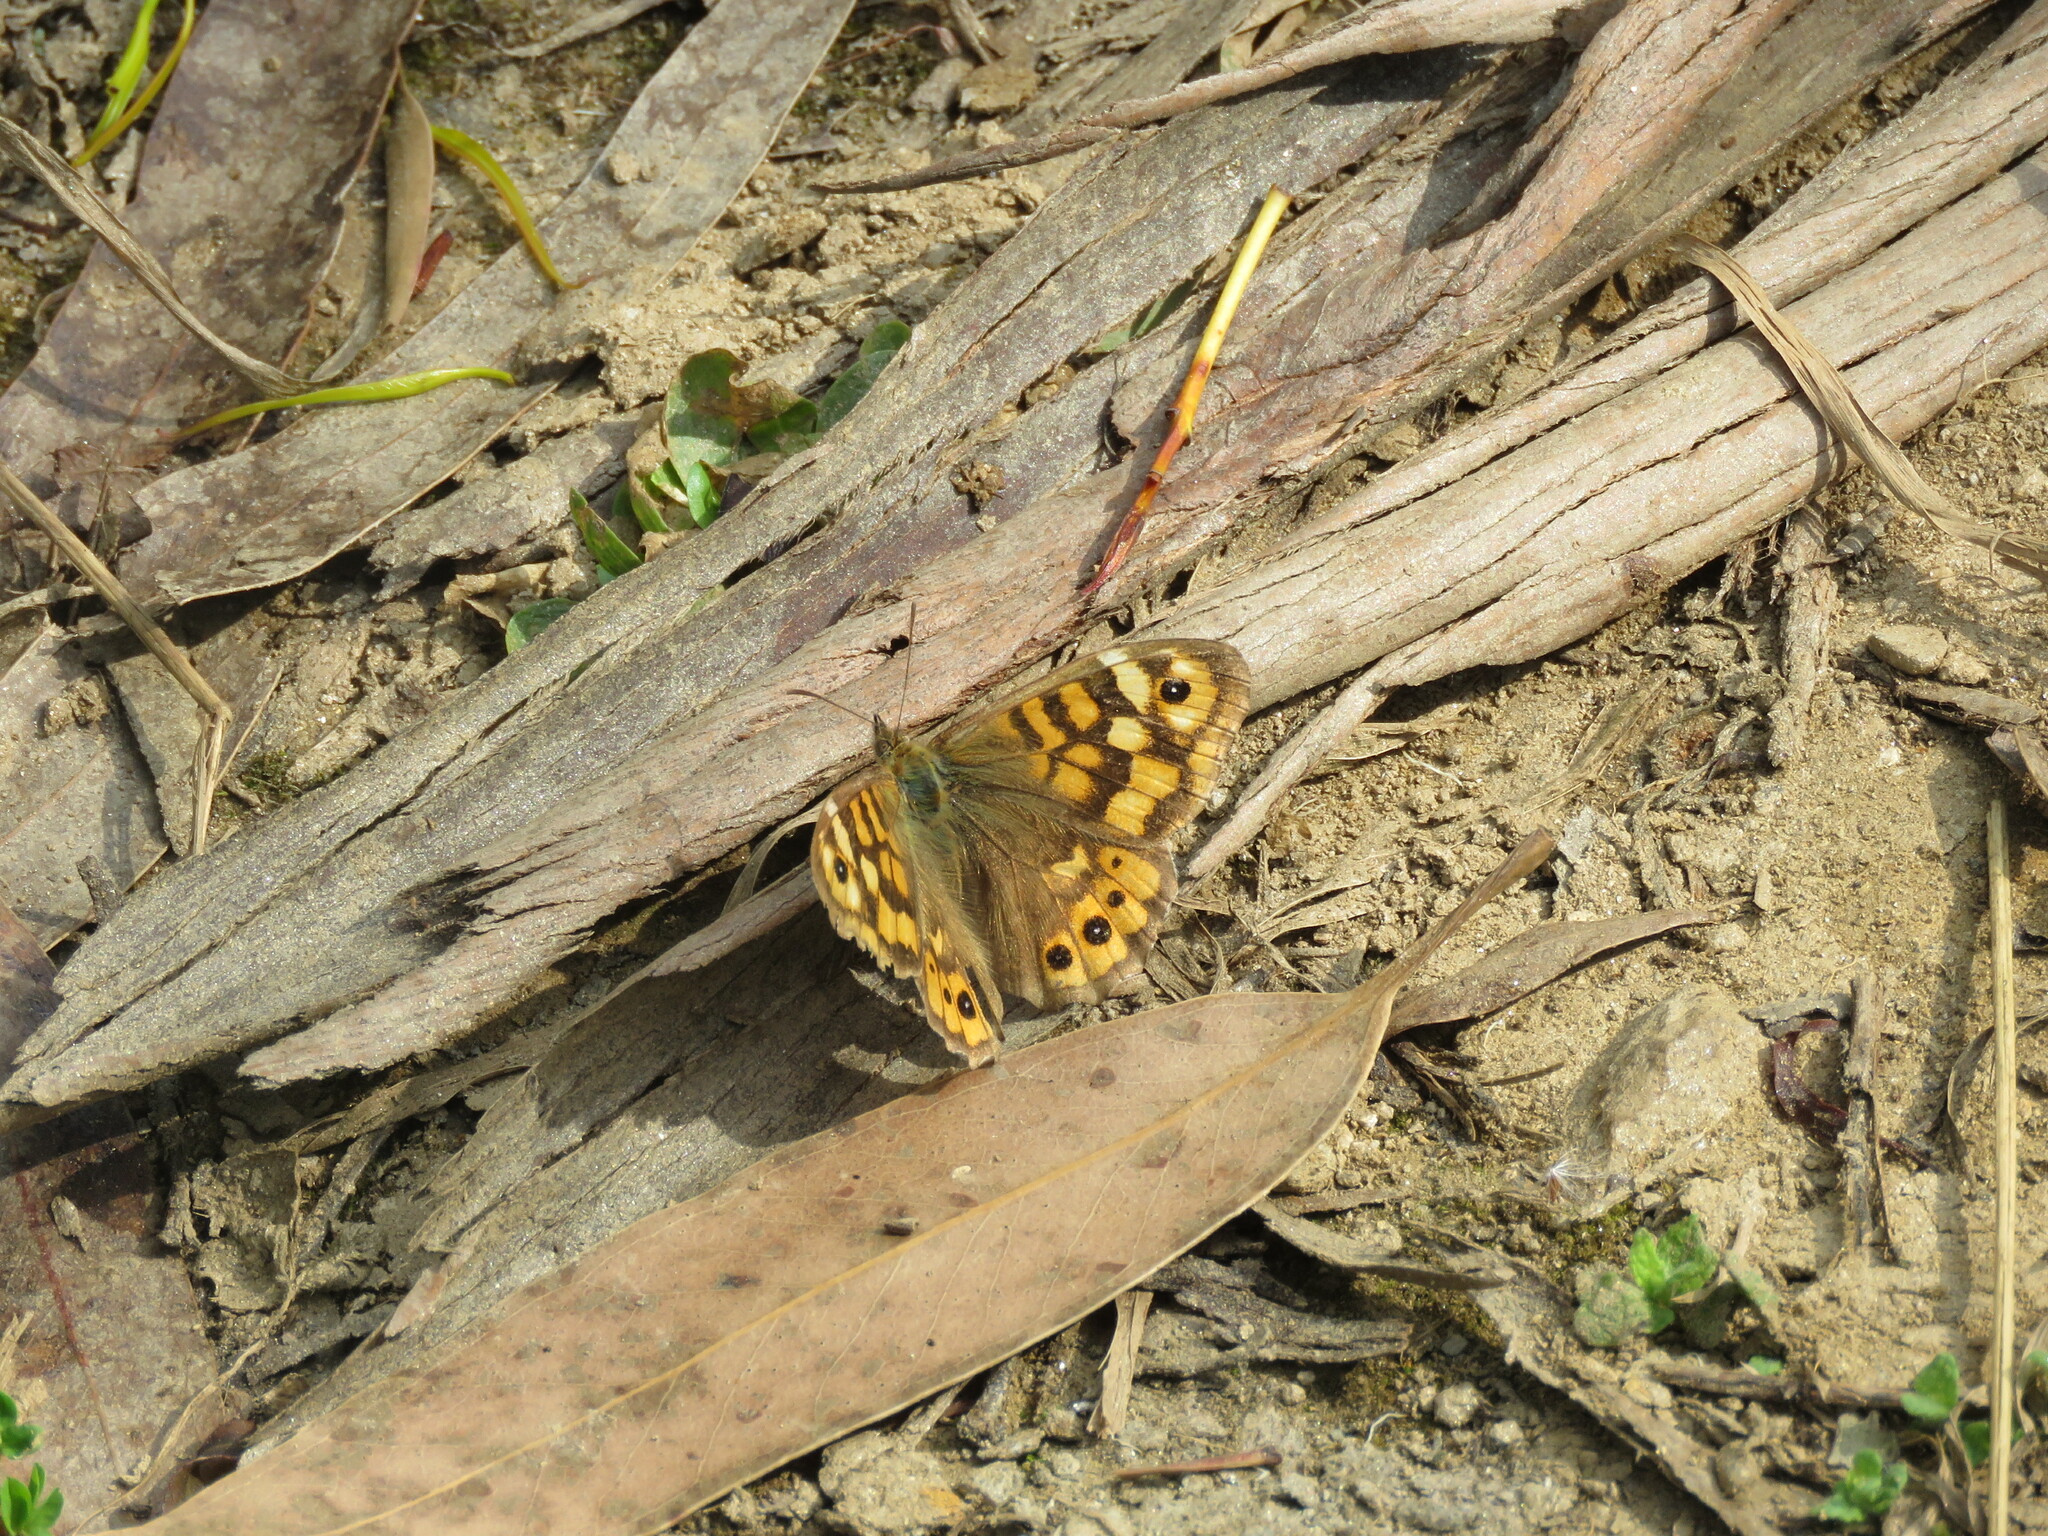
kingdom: Animalia
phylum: Arthropoda
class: Insecta
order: Lepidoptera
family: Nymphalidae
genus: Pararge
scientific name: Pararge aegeria
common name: Speckled wood
